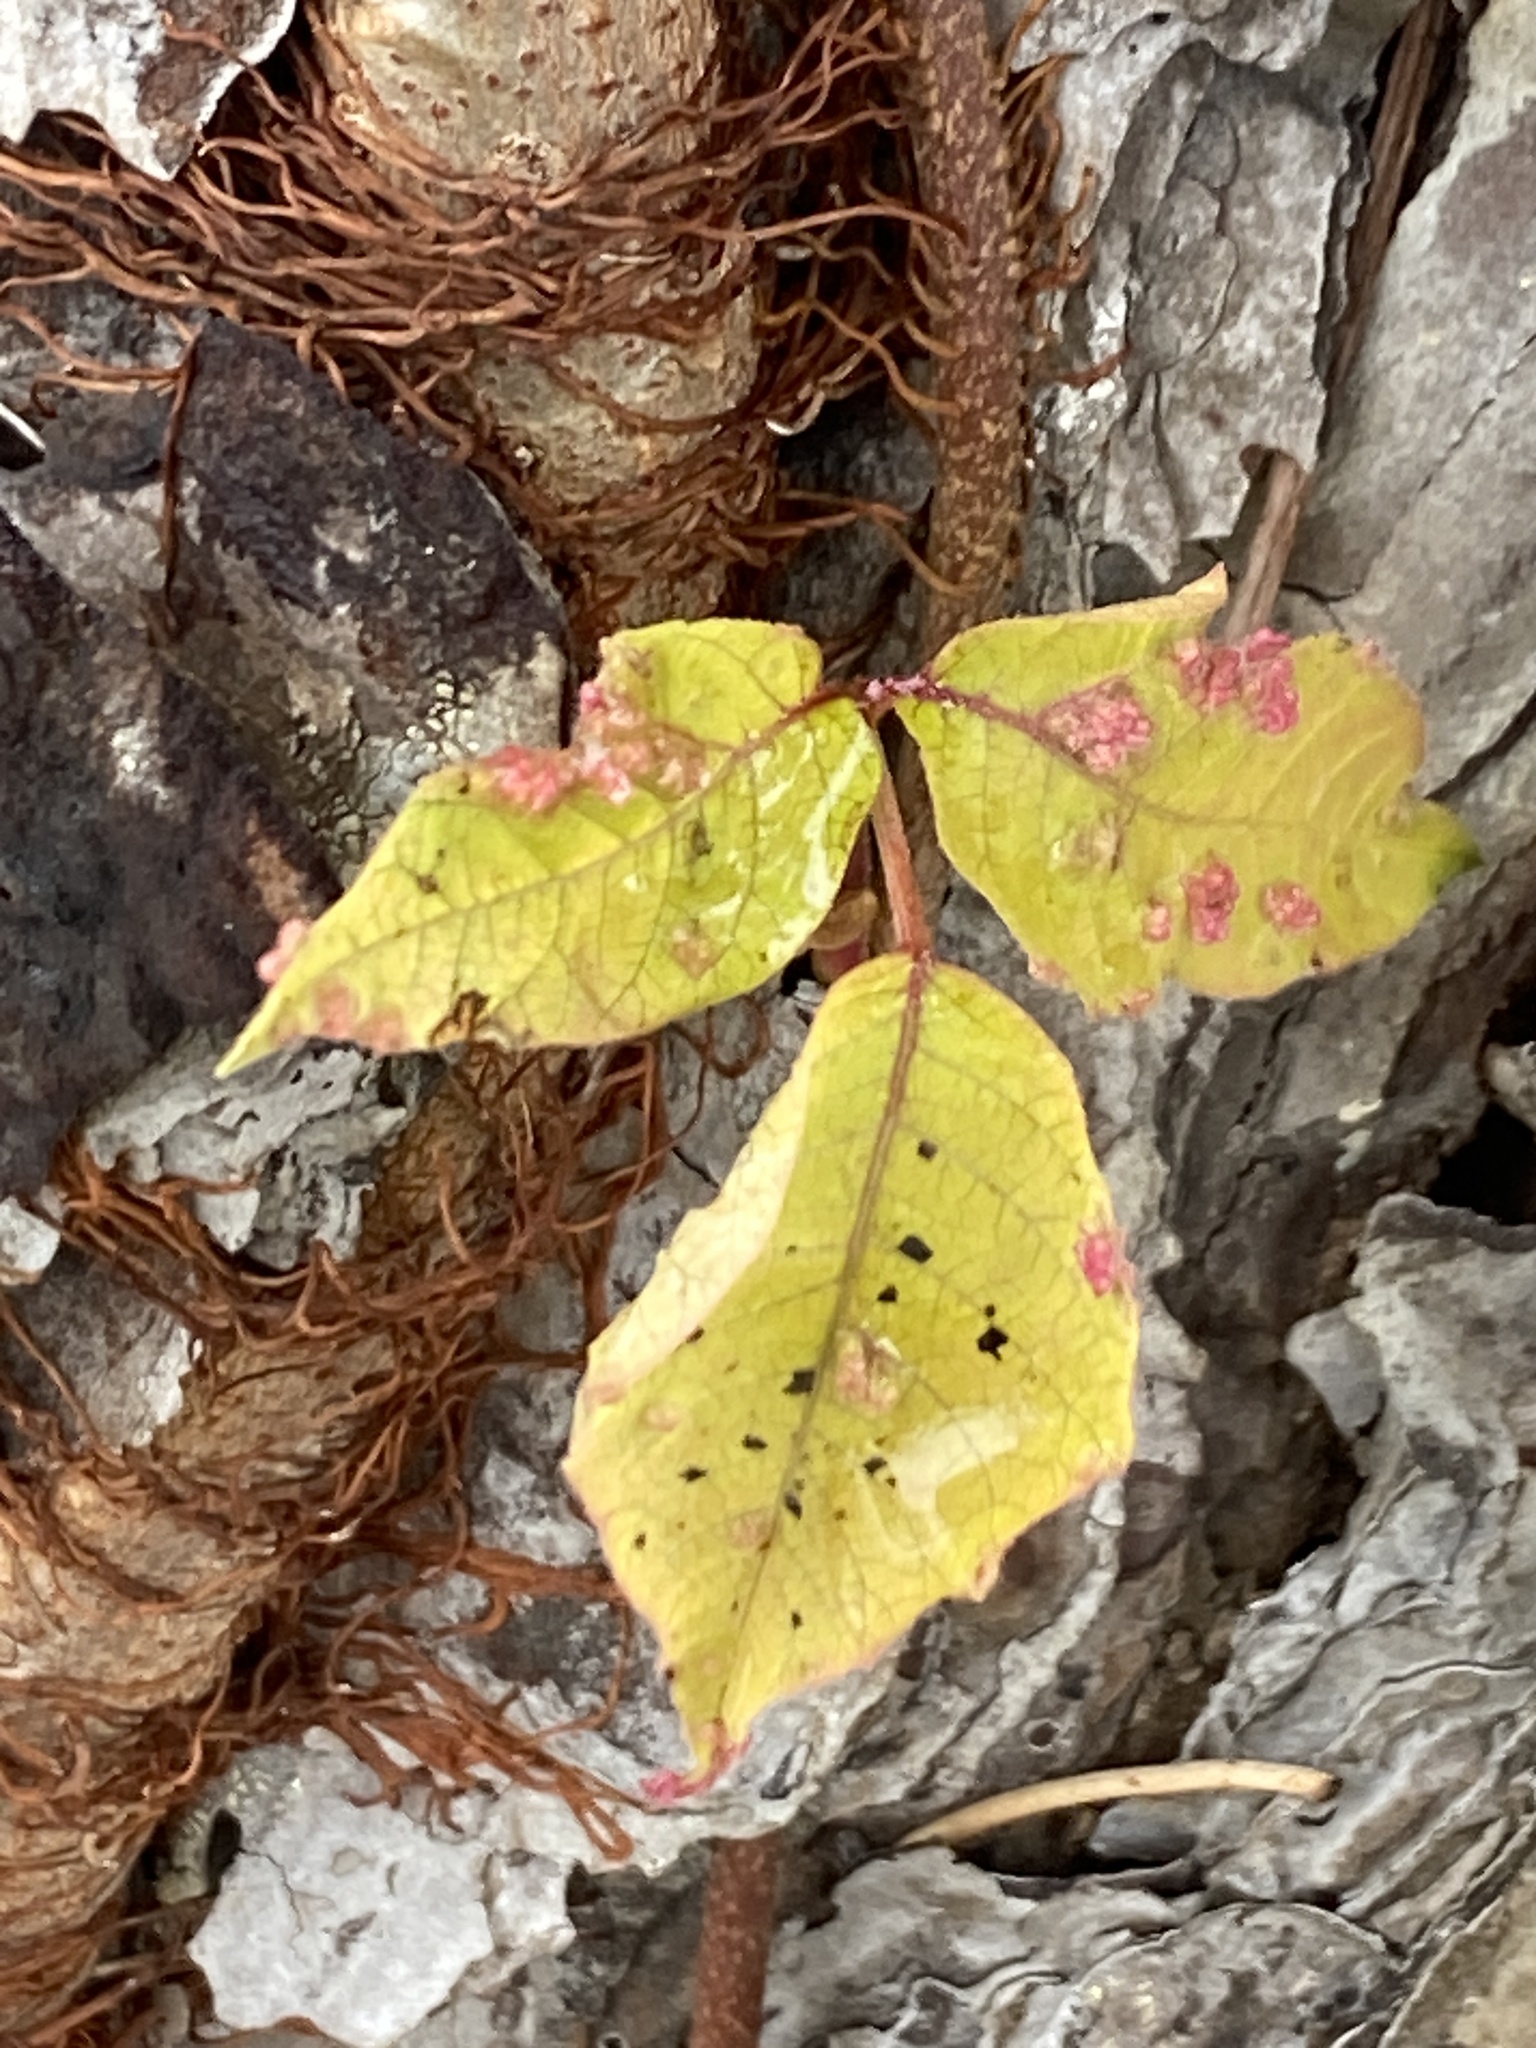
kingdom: Plantae
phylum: Tracheophyta
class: Magnoliopsida
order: Sapindales
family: Anacardiaceae
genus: Toxicodendron
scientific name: Toxicodendron radicans
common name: Poison ivy
